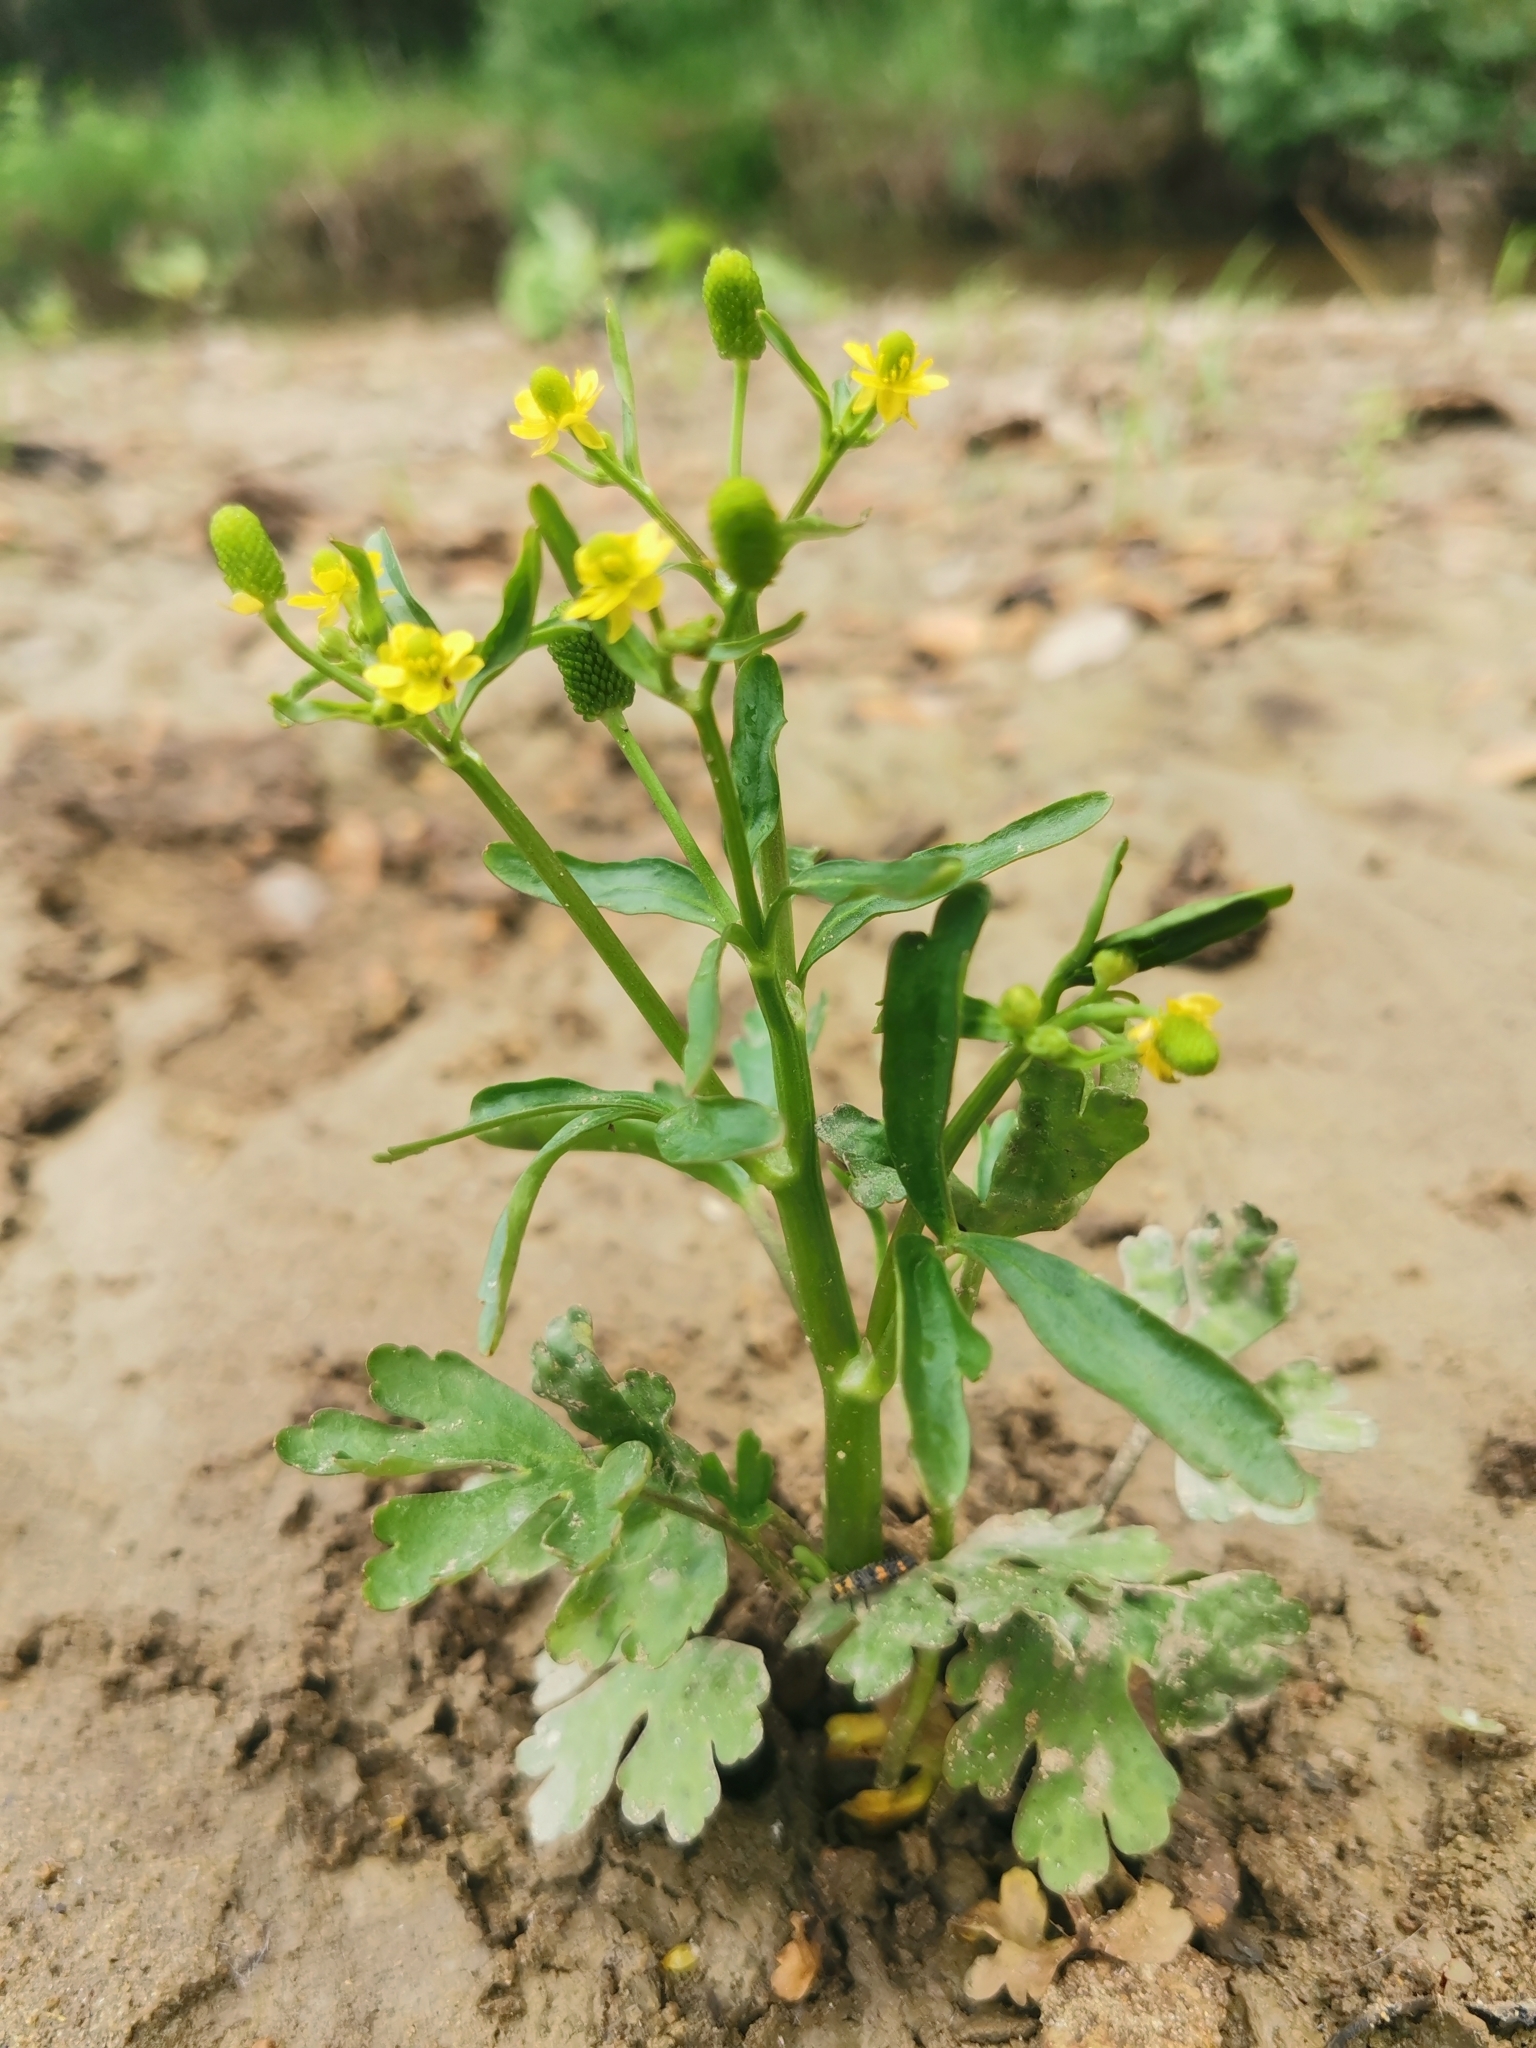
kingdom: Plantae
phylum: Tracheophyta
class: Magnoliopsida
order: Ranunculales
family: Ranunculaceae
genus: Ranunculus
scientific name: Ranunculus sceleratus
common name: Celery-leaved buttercup
